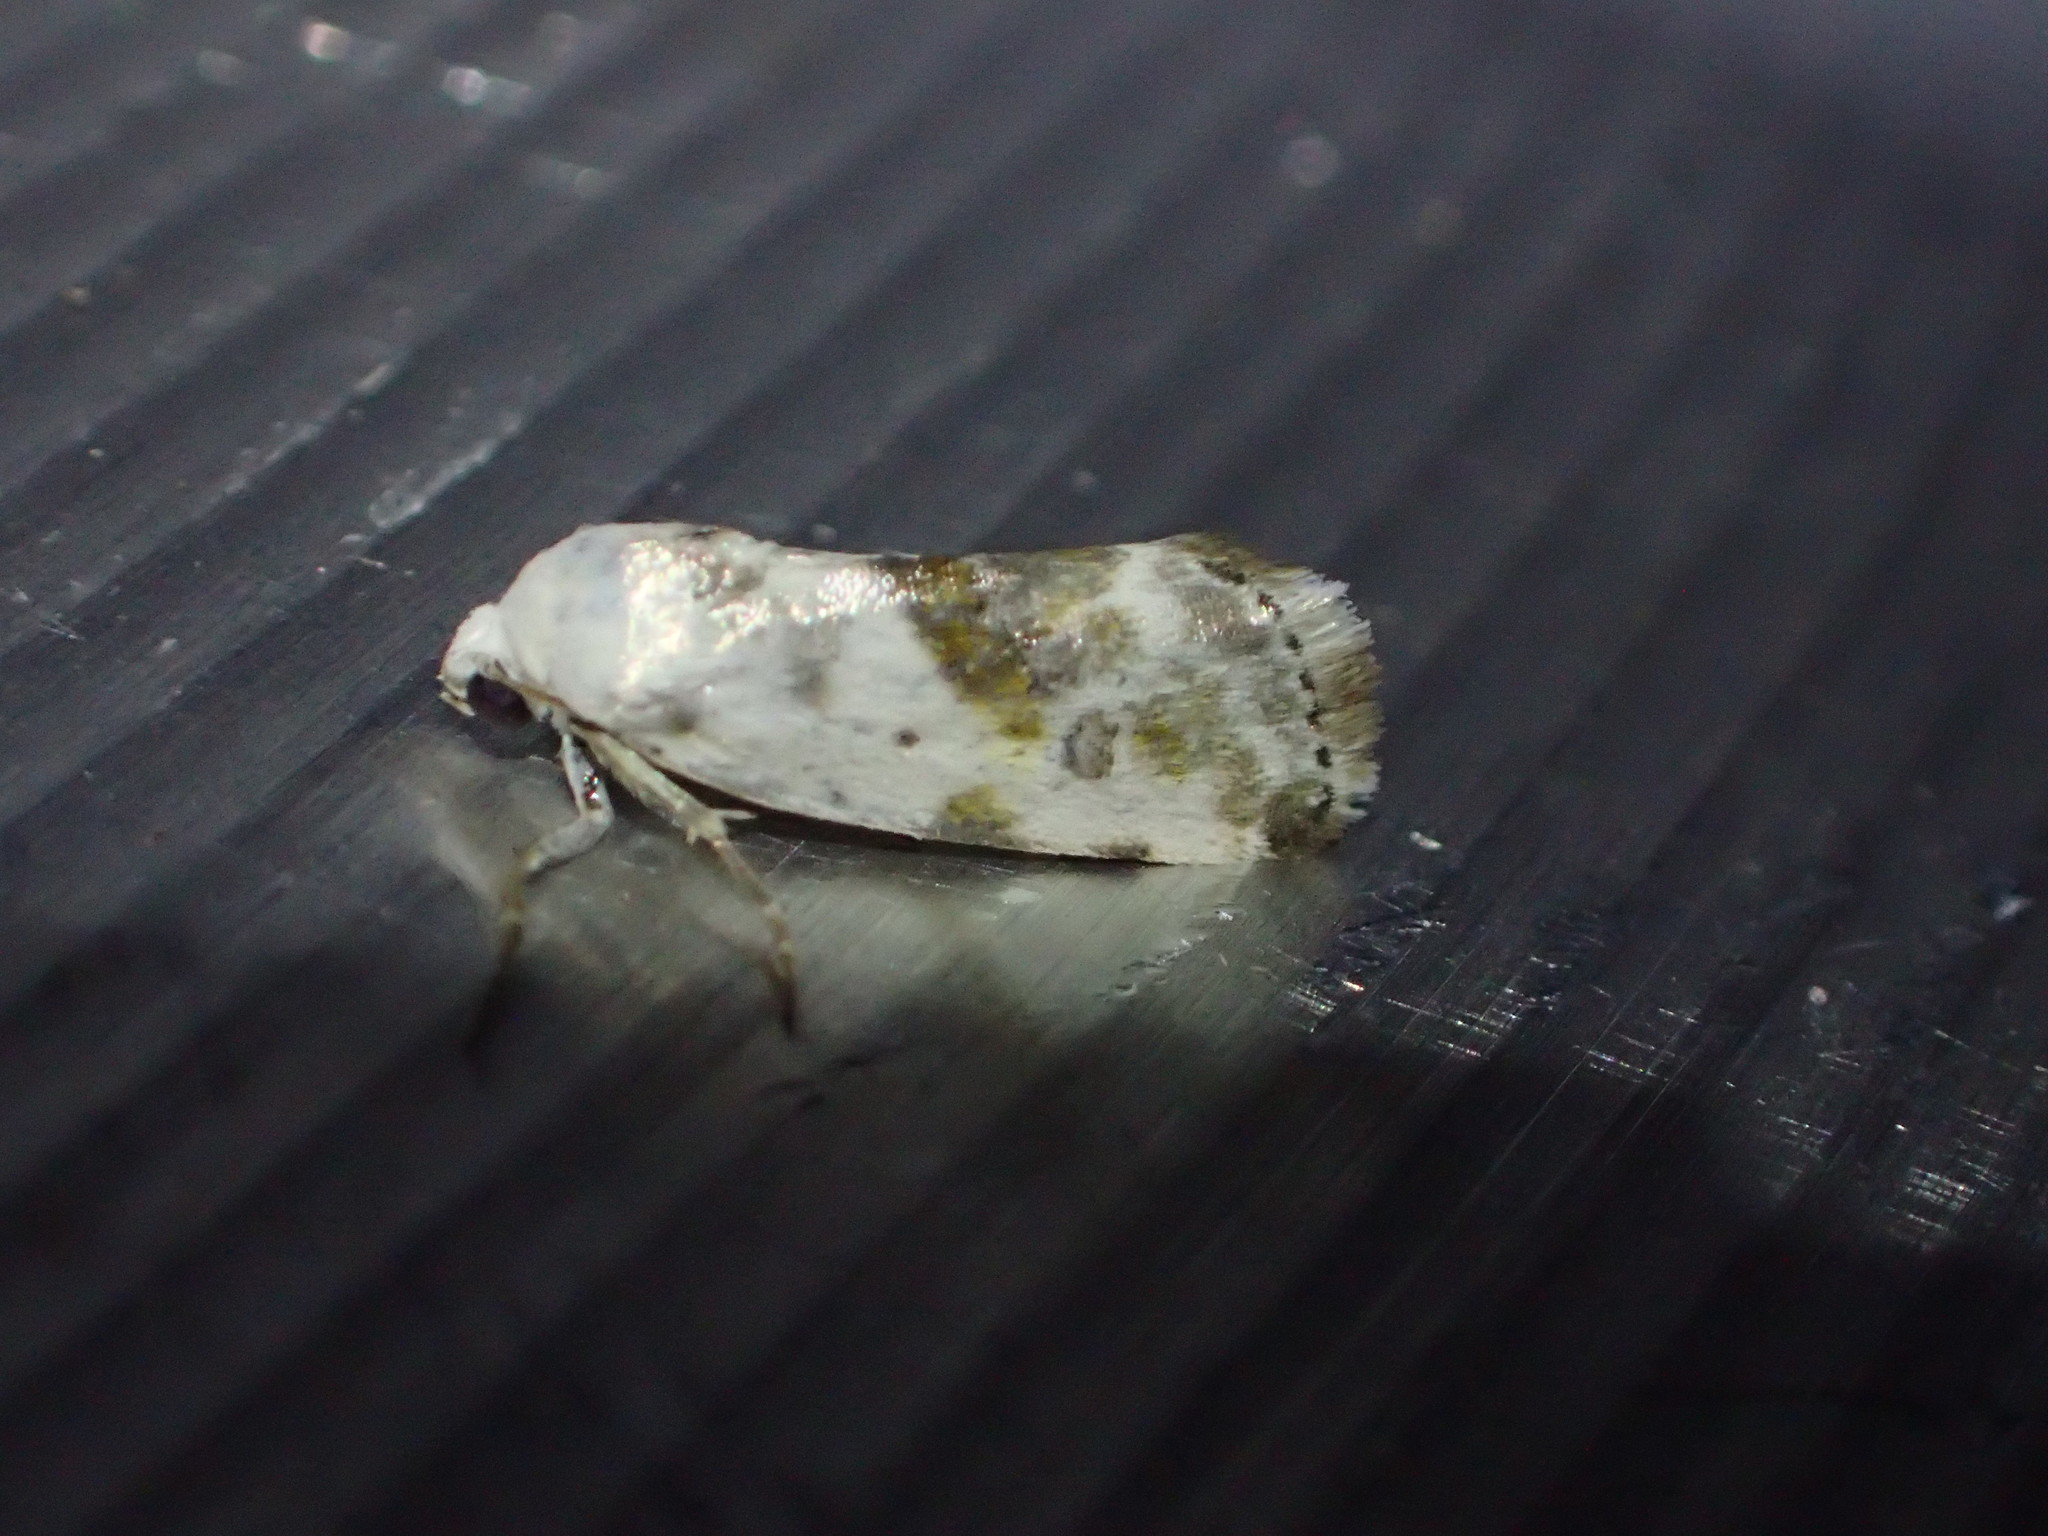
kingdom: Animalia
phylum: Arthropoda
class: Insecta
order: Lepidoptera
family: Noctuidae
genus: Acontia
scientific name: Acontia candefacta
